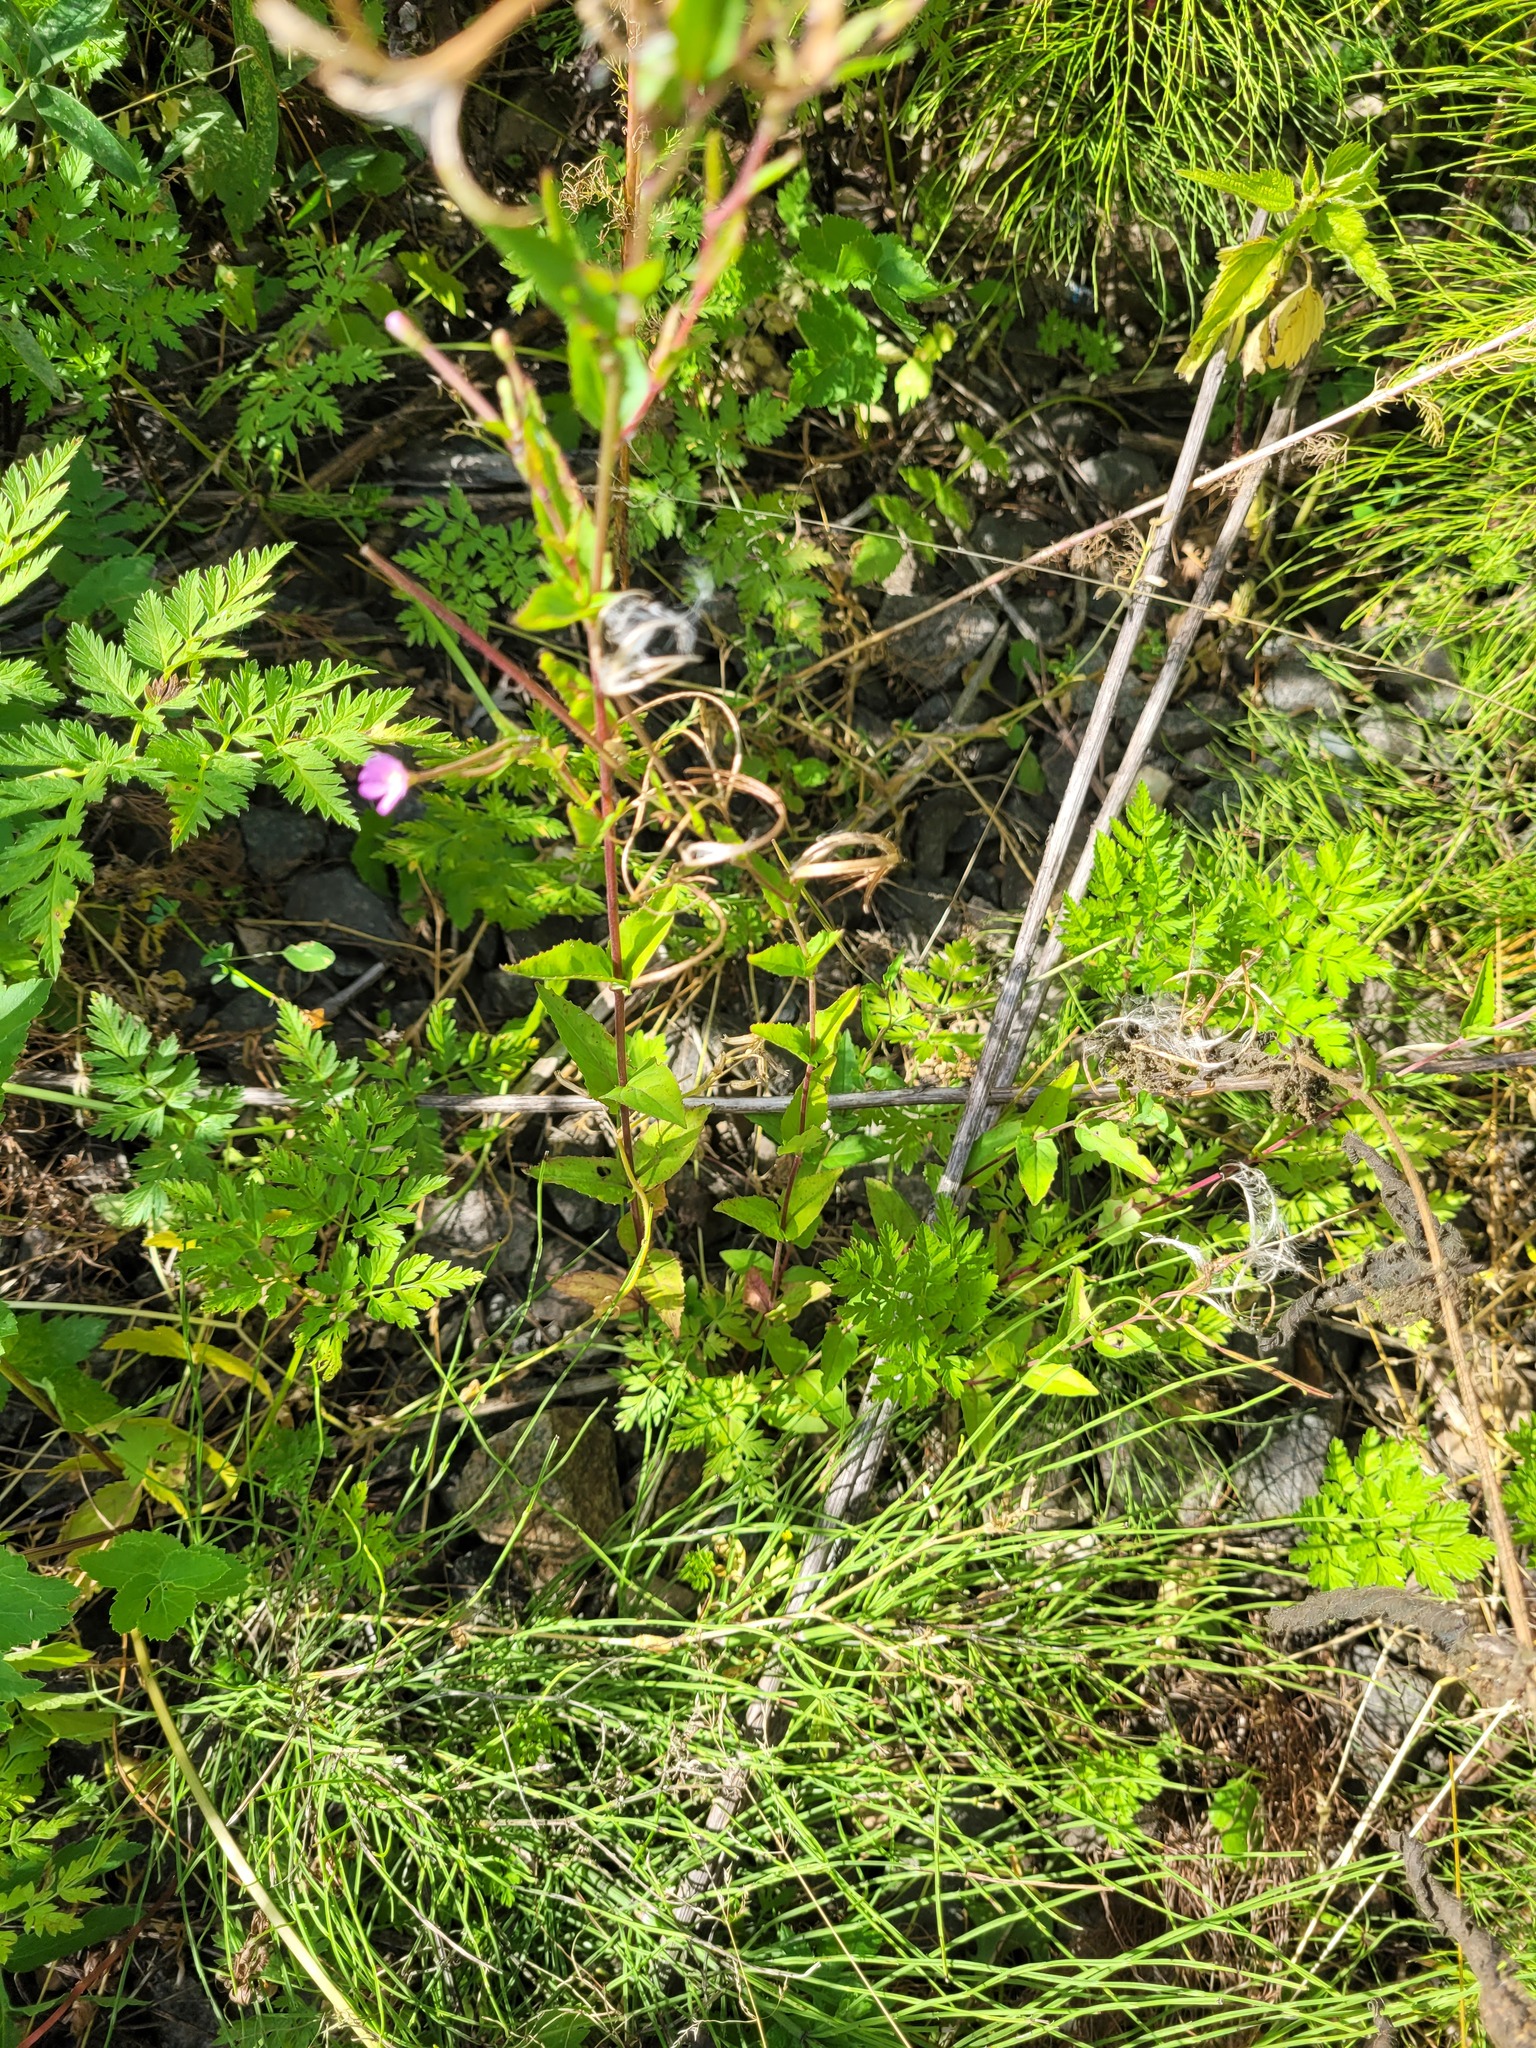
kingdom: Plantae
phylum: Tracheophyta
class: Magnoliopsida
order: Myrtales
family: Onagraceae
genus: Epilobium
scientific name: Epilobium montanum
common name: Broad-leaved willowherb
